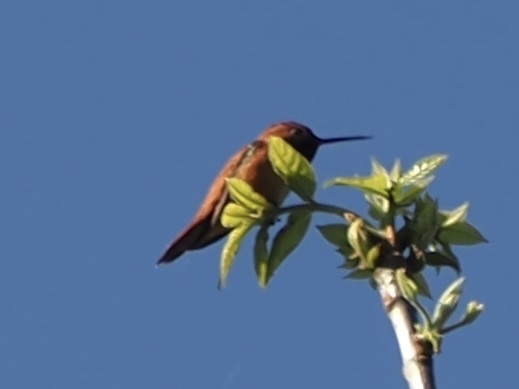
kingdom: Animalia
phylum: Chordata
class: Aves
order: Apodiformes
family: Trochilidae
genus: Selasphorus
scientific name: Selasphorus rufus
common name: Rufous hummingbird
